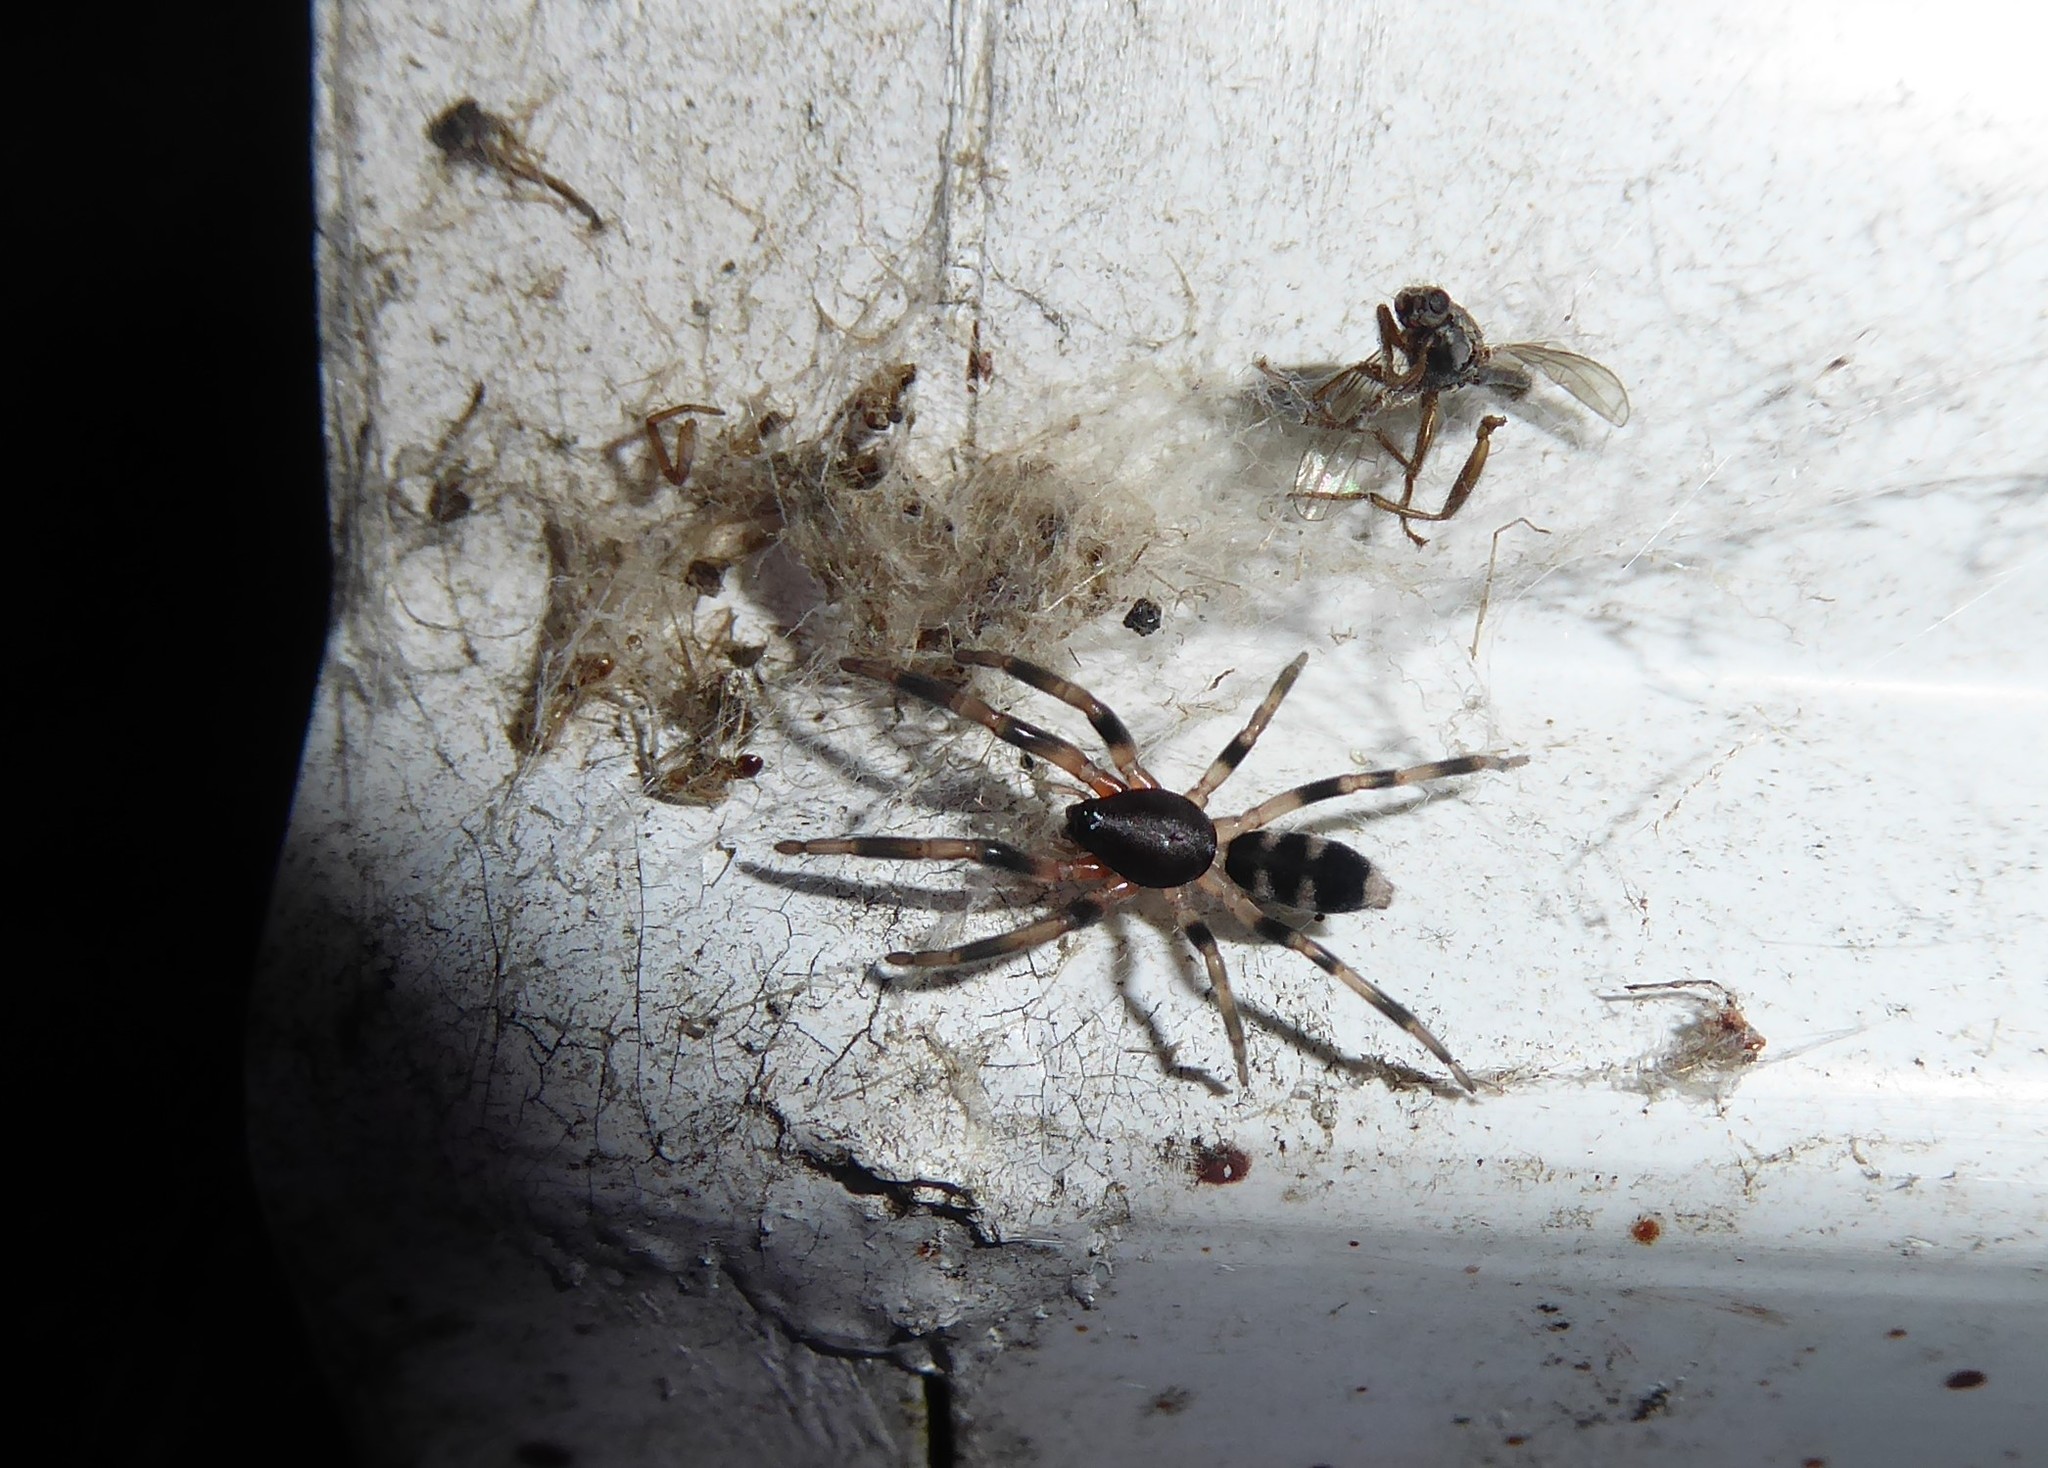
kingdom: Animalia
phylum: Arthropoda
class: Arachnida
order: Araneae
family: Lamponidae
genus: Lampona
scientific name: Lampona cylindrata
